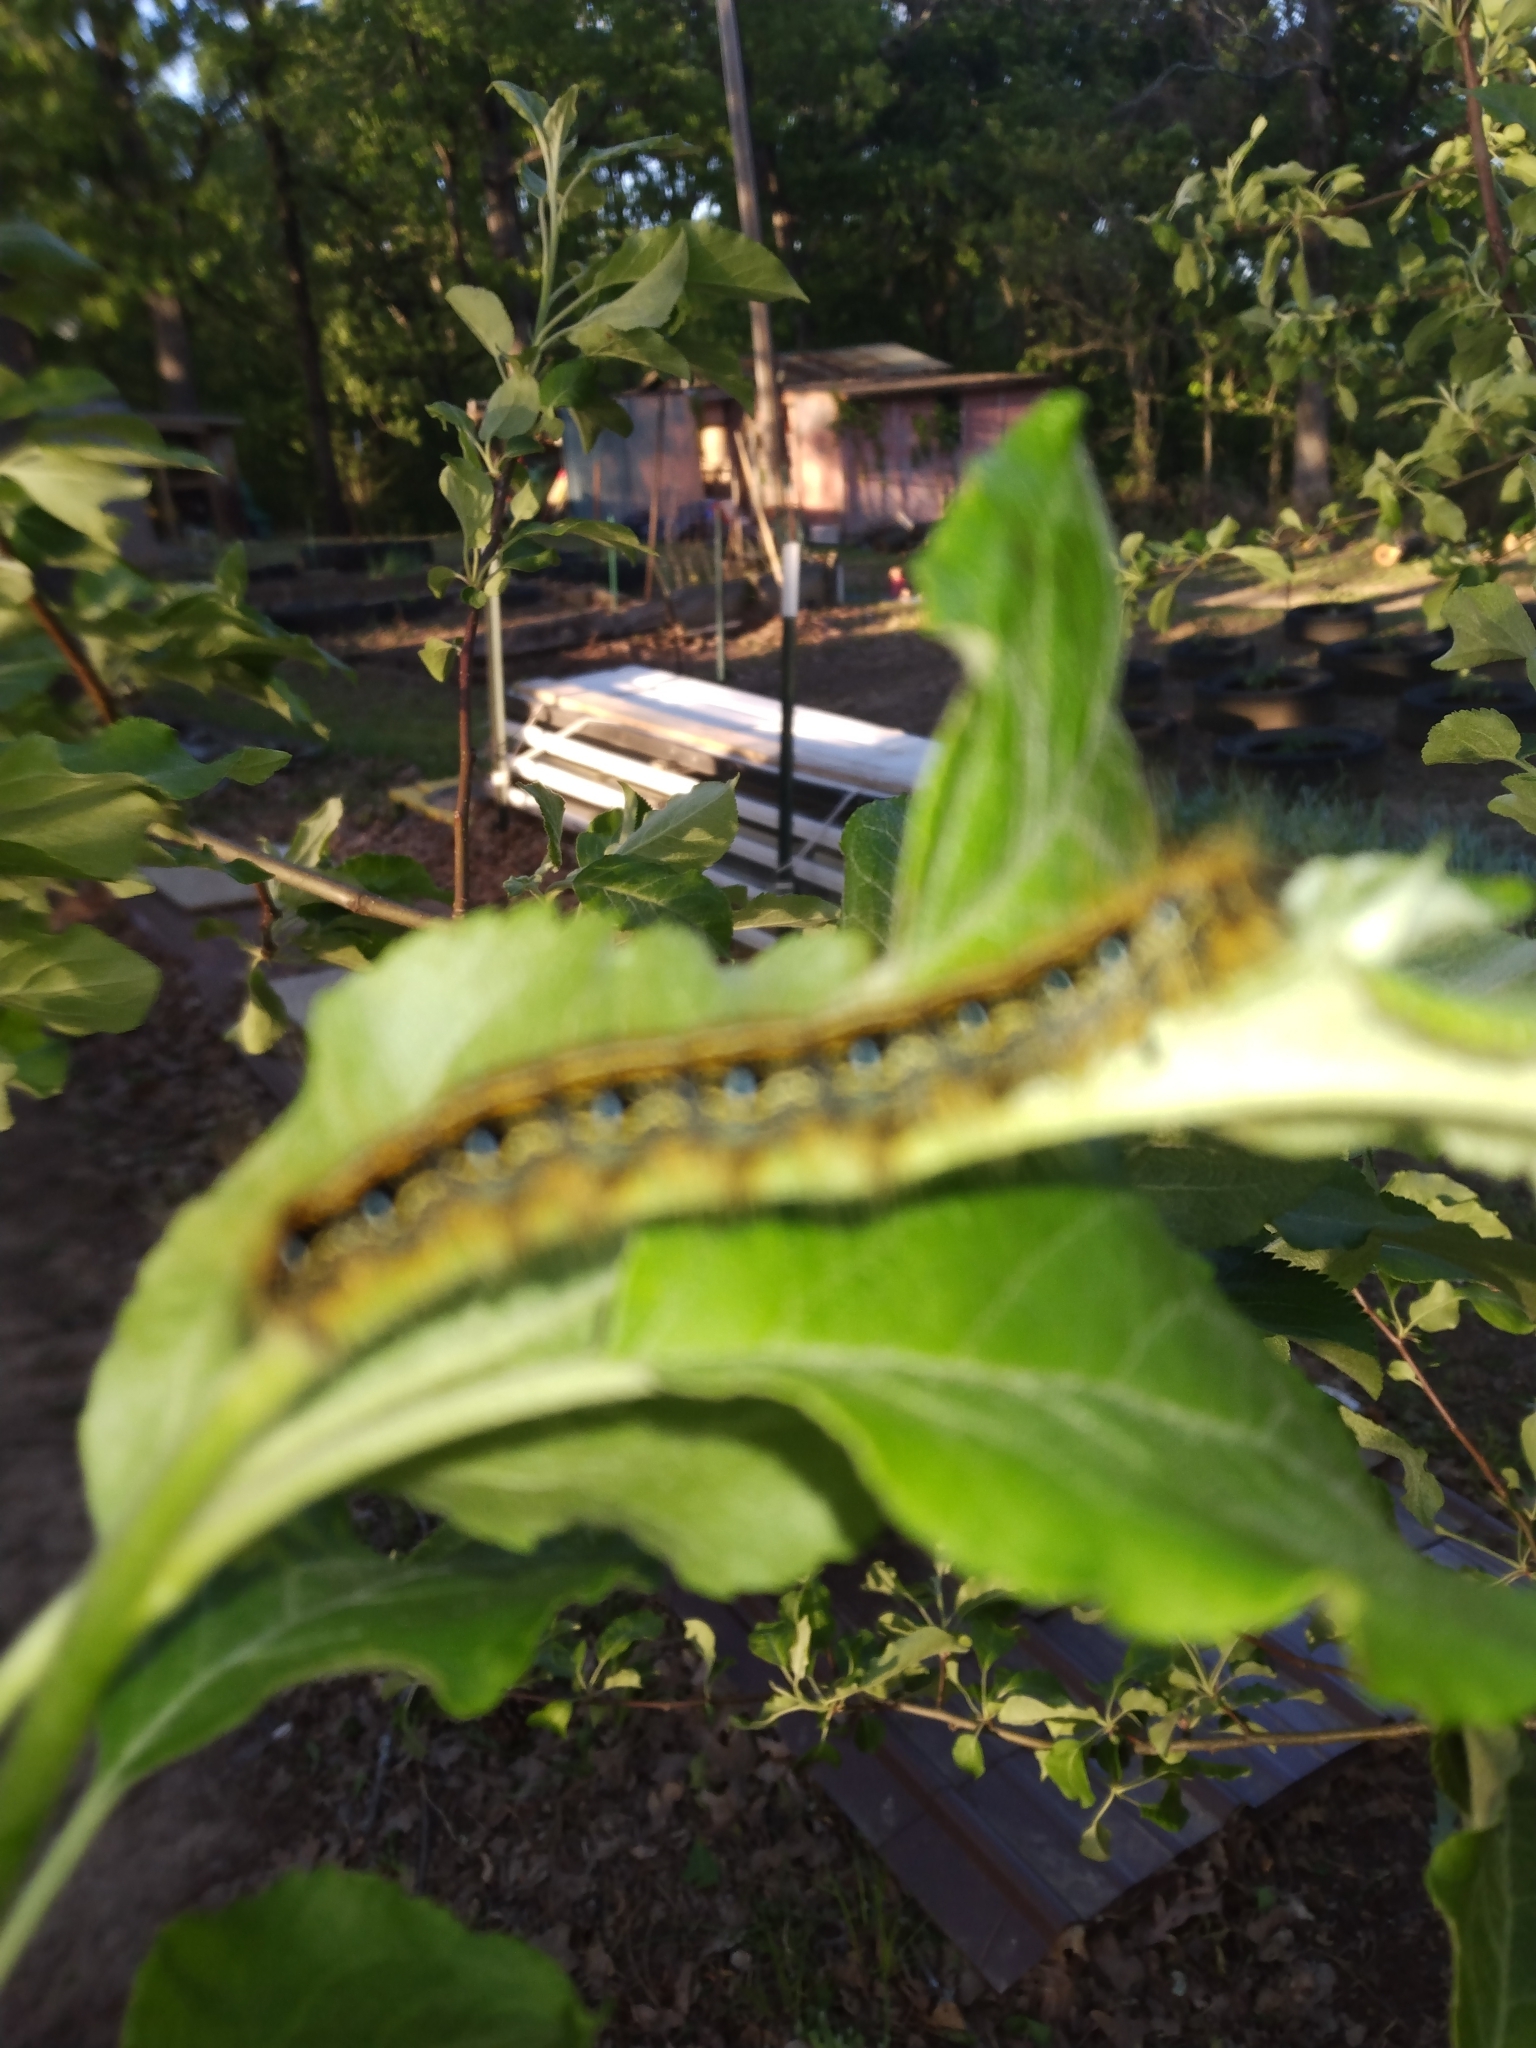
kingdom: Animalia
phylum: Arthropoda
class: Insecta
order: Lepidoptera
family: Lasiocampidae
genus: Malacosoma
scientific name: Malacosoma americana
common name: Eastern tent caterpillar moth
